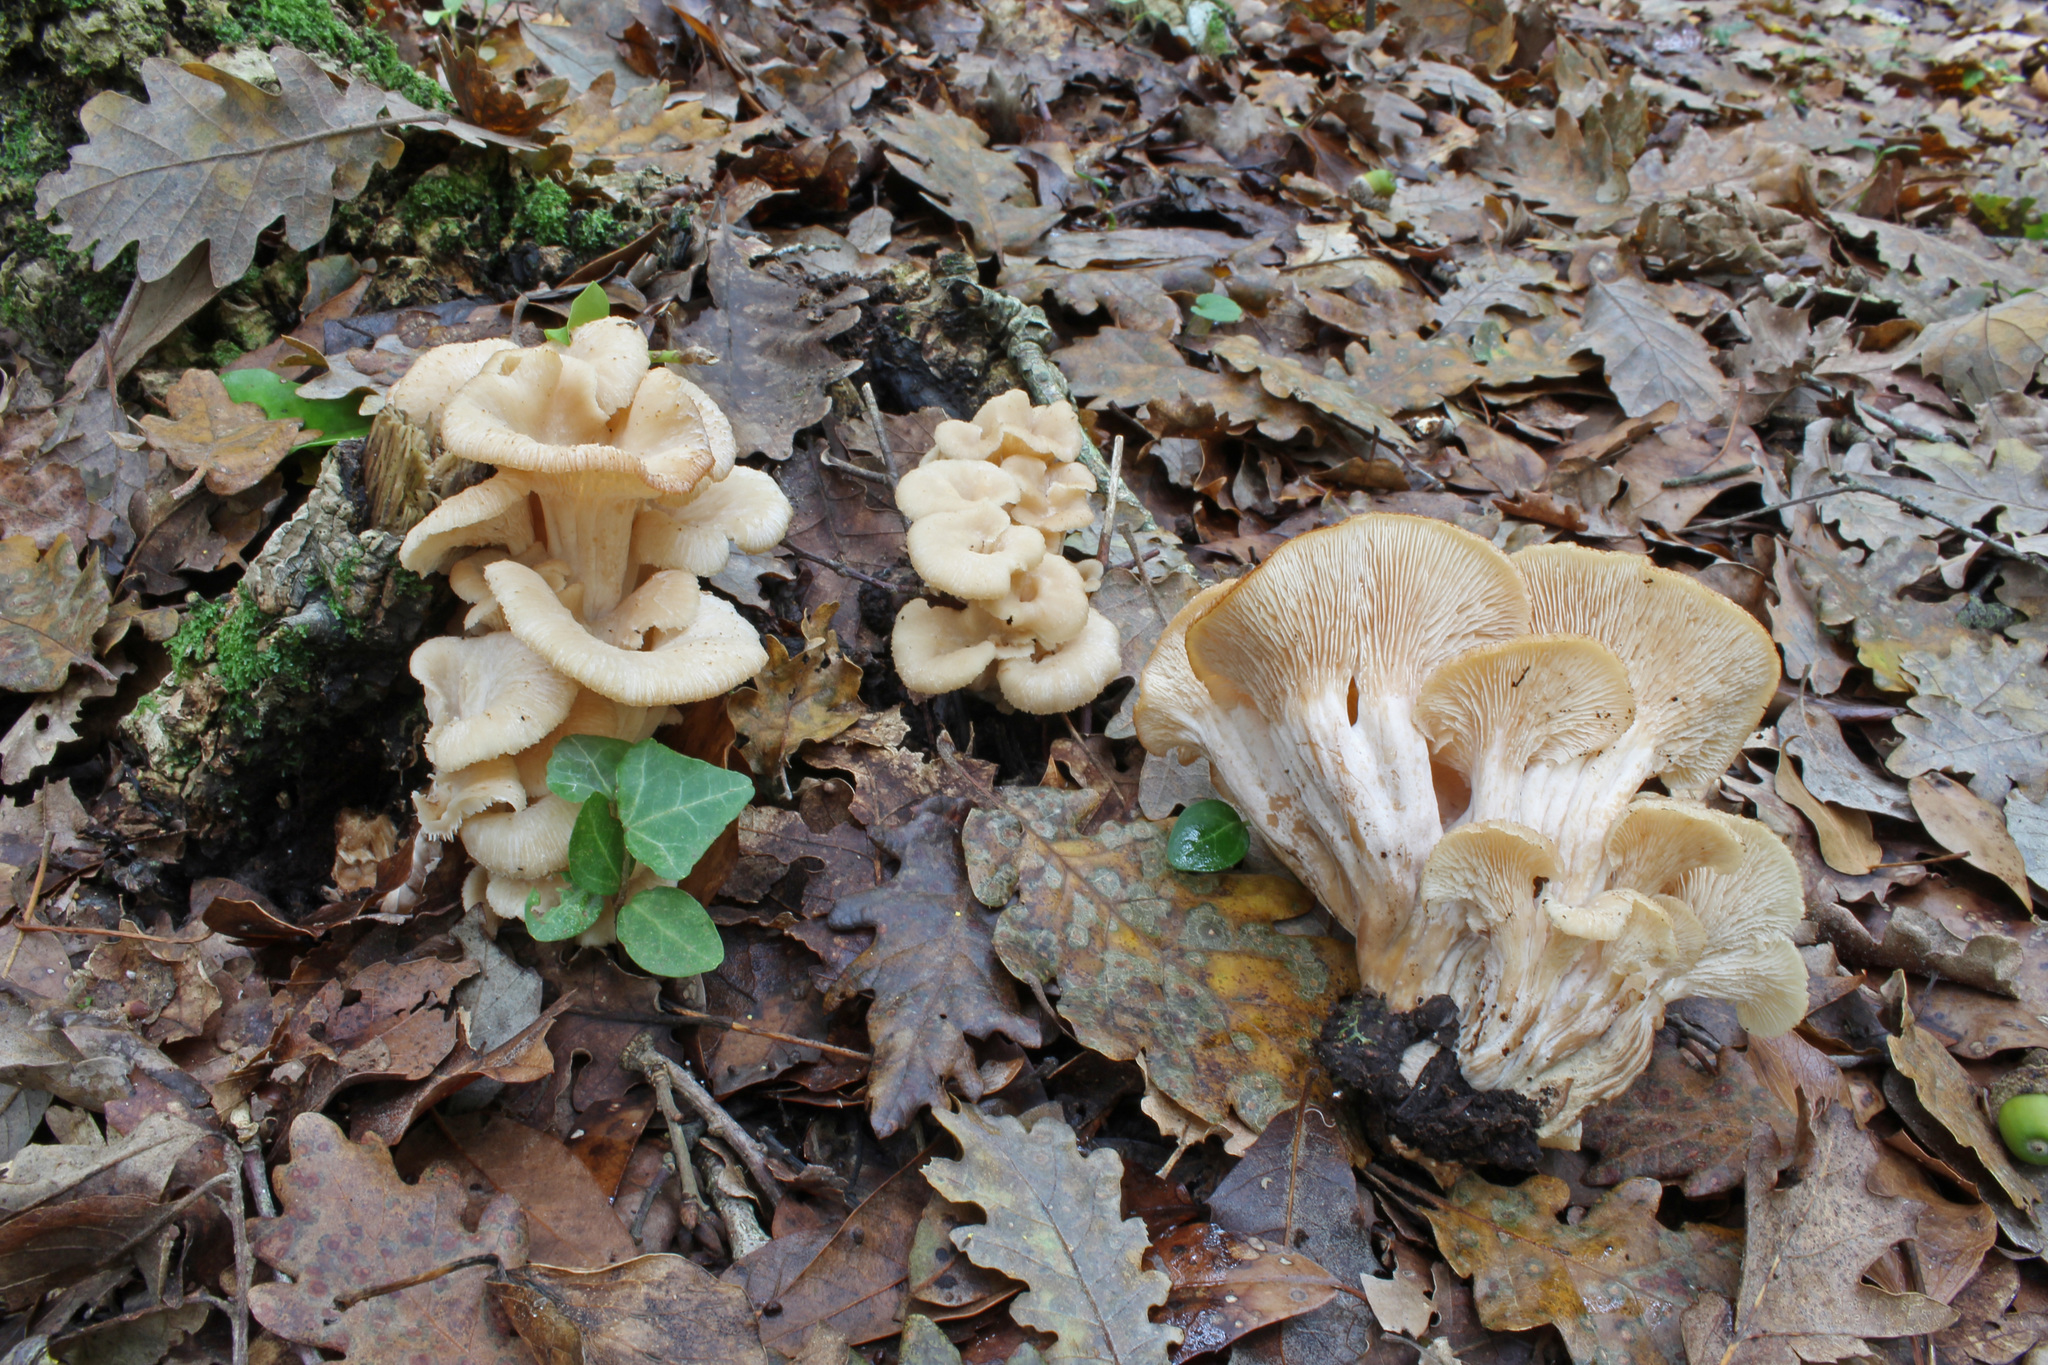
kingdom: Fungi
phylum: Basidiomycota
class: Agaricomycetes
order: Russulales
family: Auriscalpiaceae
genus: Lentinellus
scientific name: Lentinellus inolens
